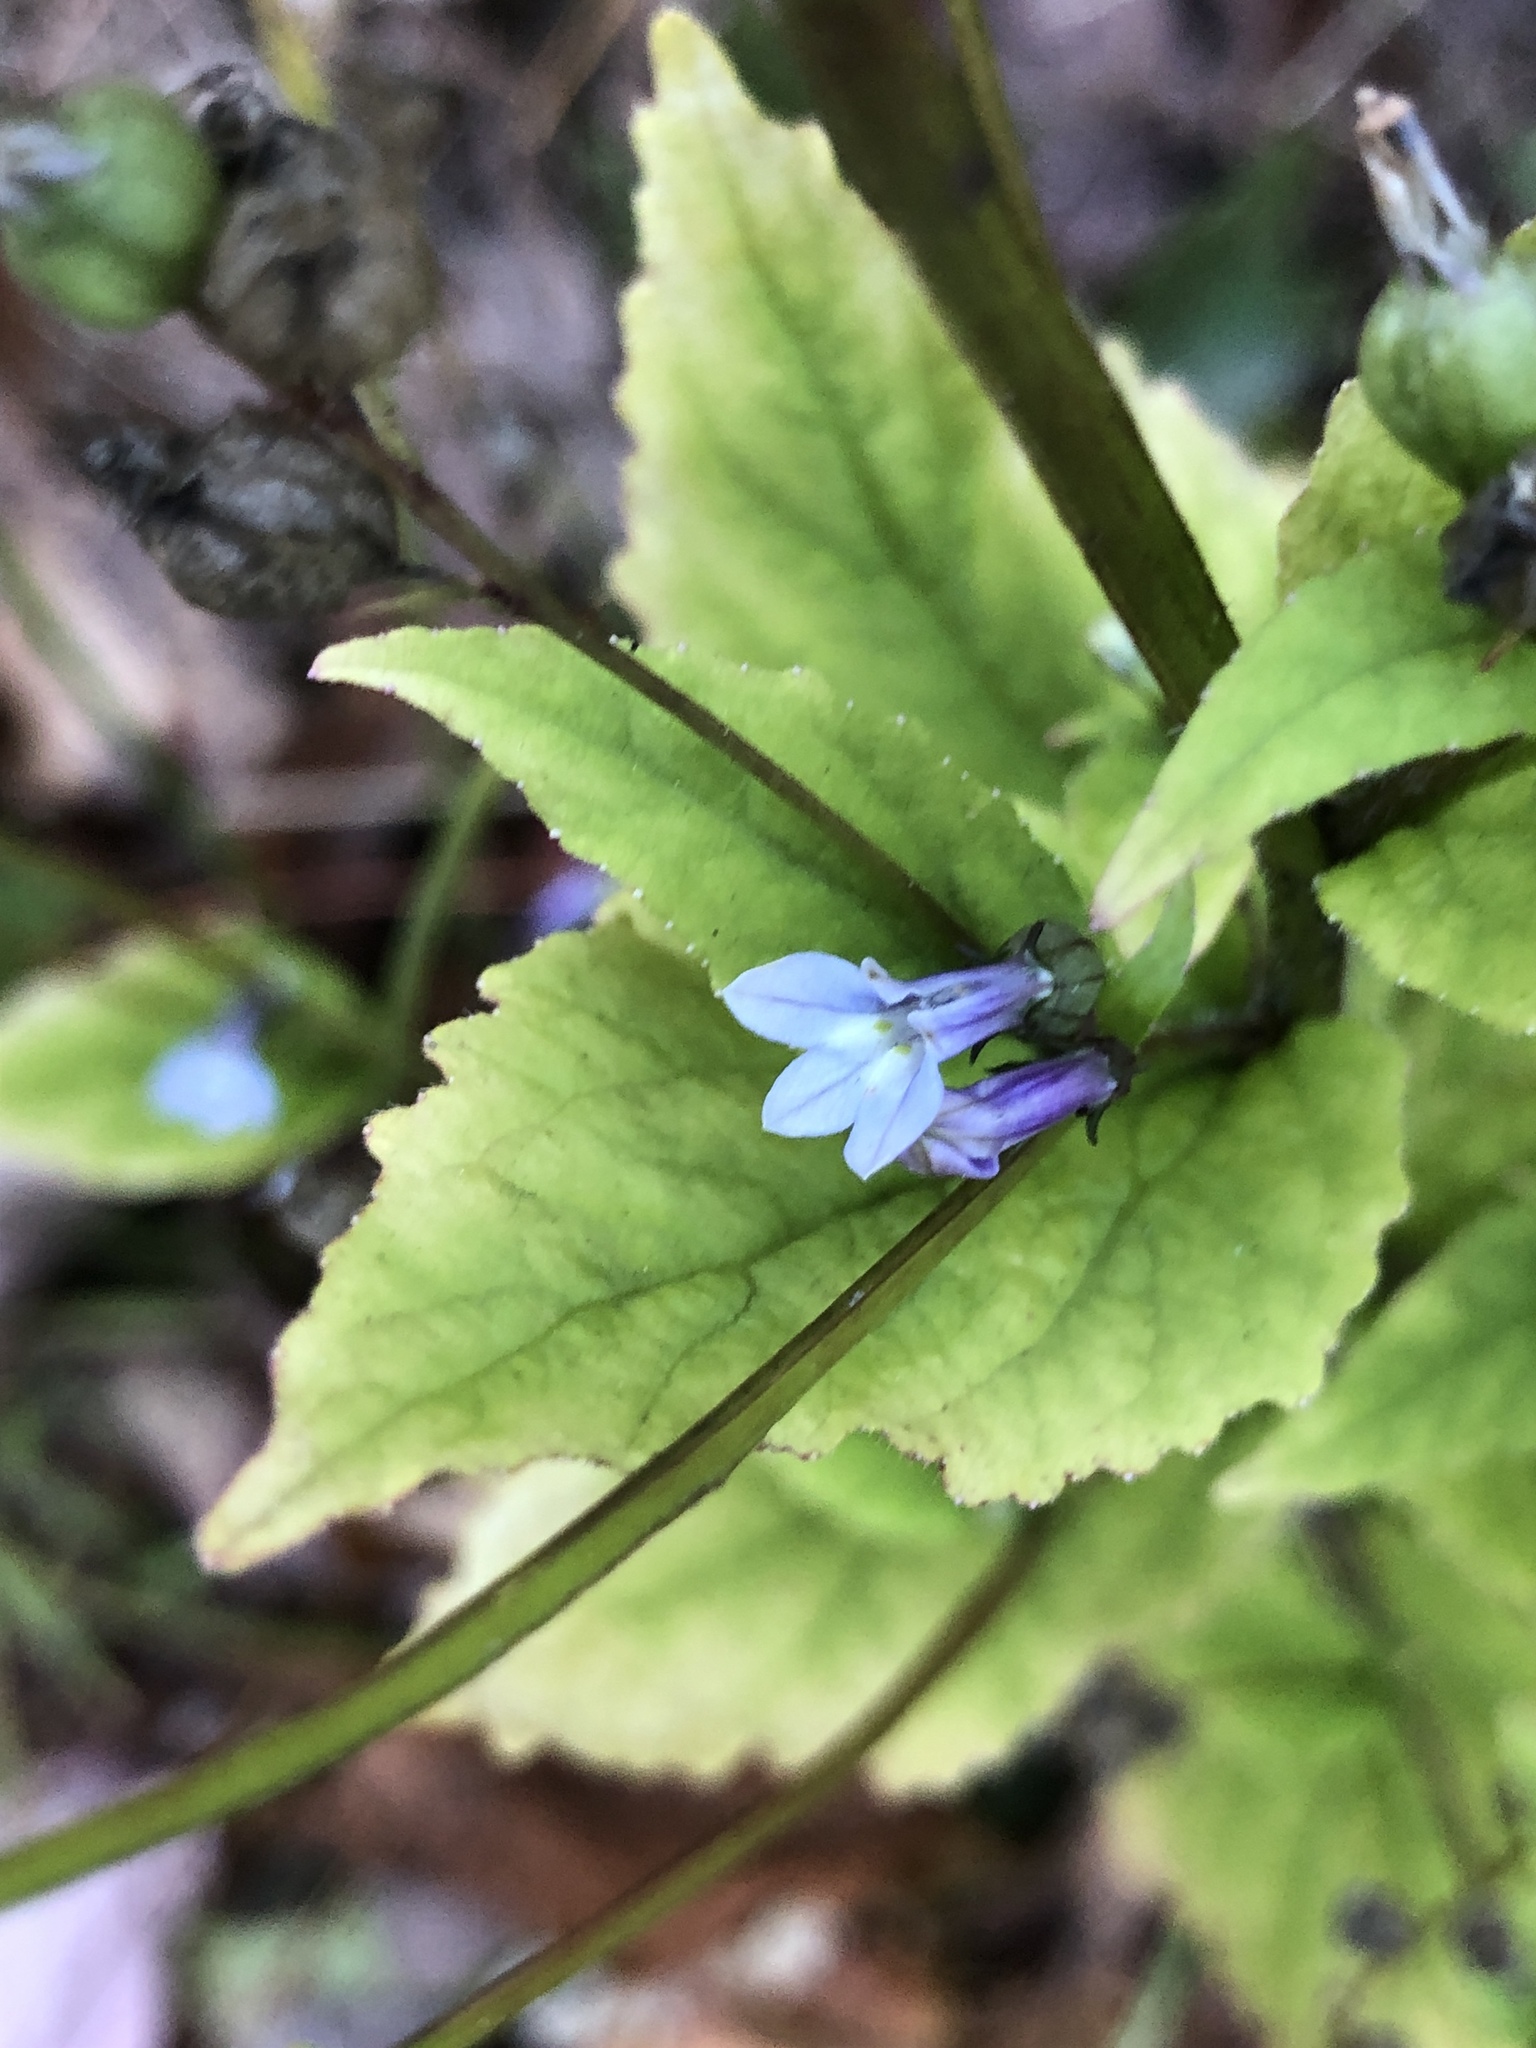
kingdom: Plantae
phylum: Tracheophyta
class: Magnoliopsida
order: Asterales
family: Campanulaceae
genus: Lobelia
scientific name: Lobelia inflata
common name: Indian tobacco
